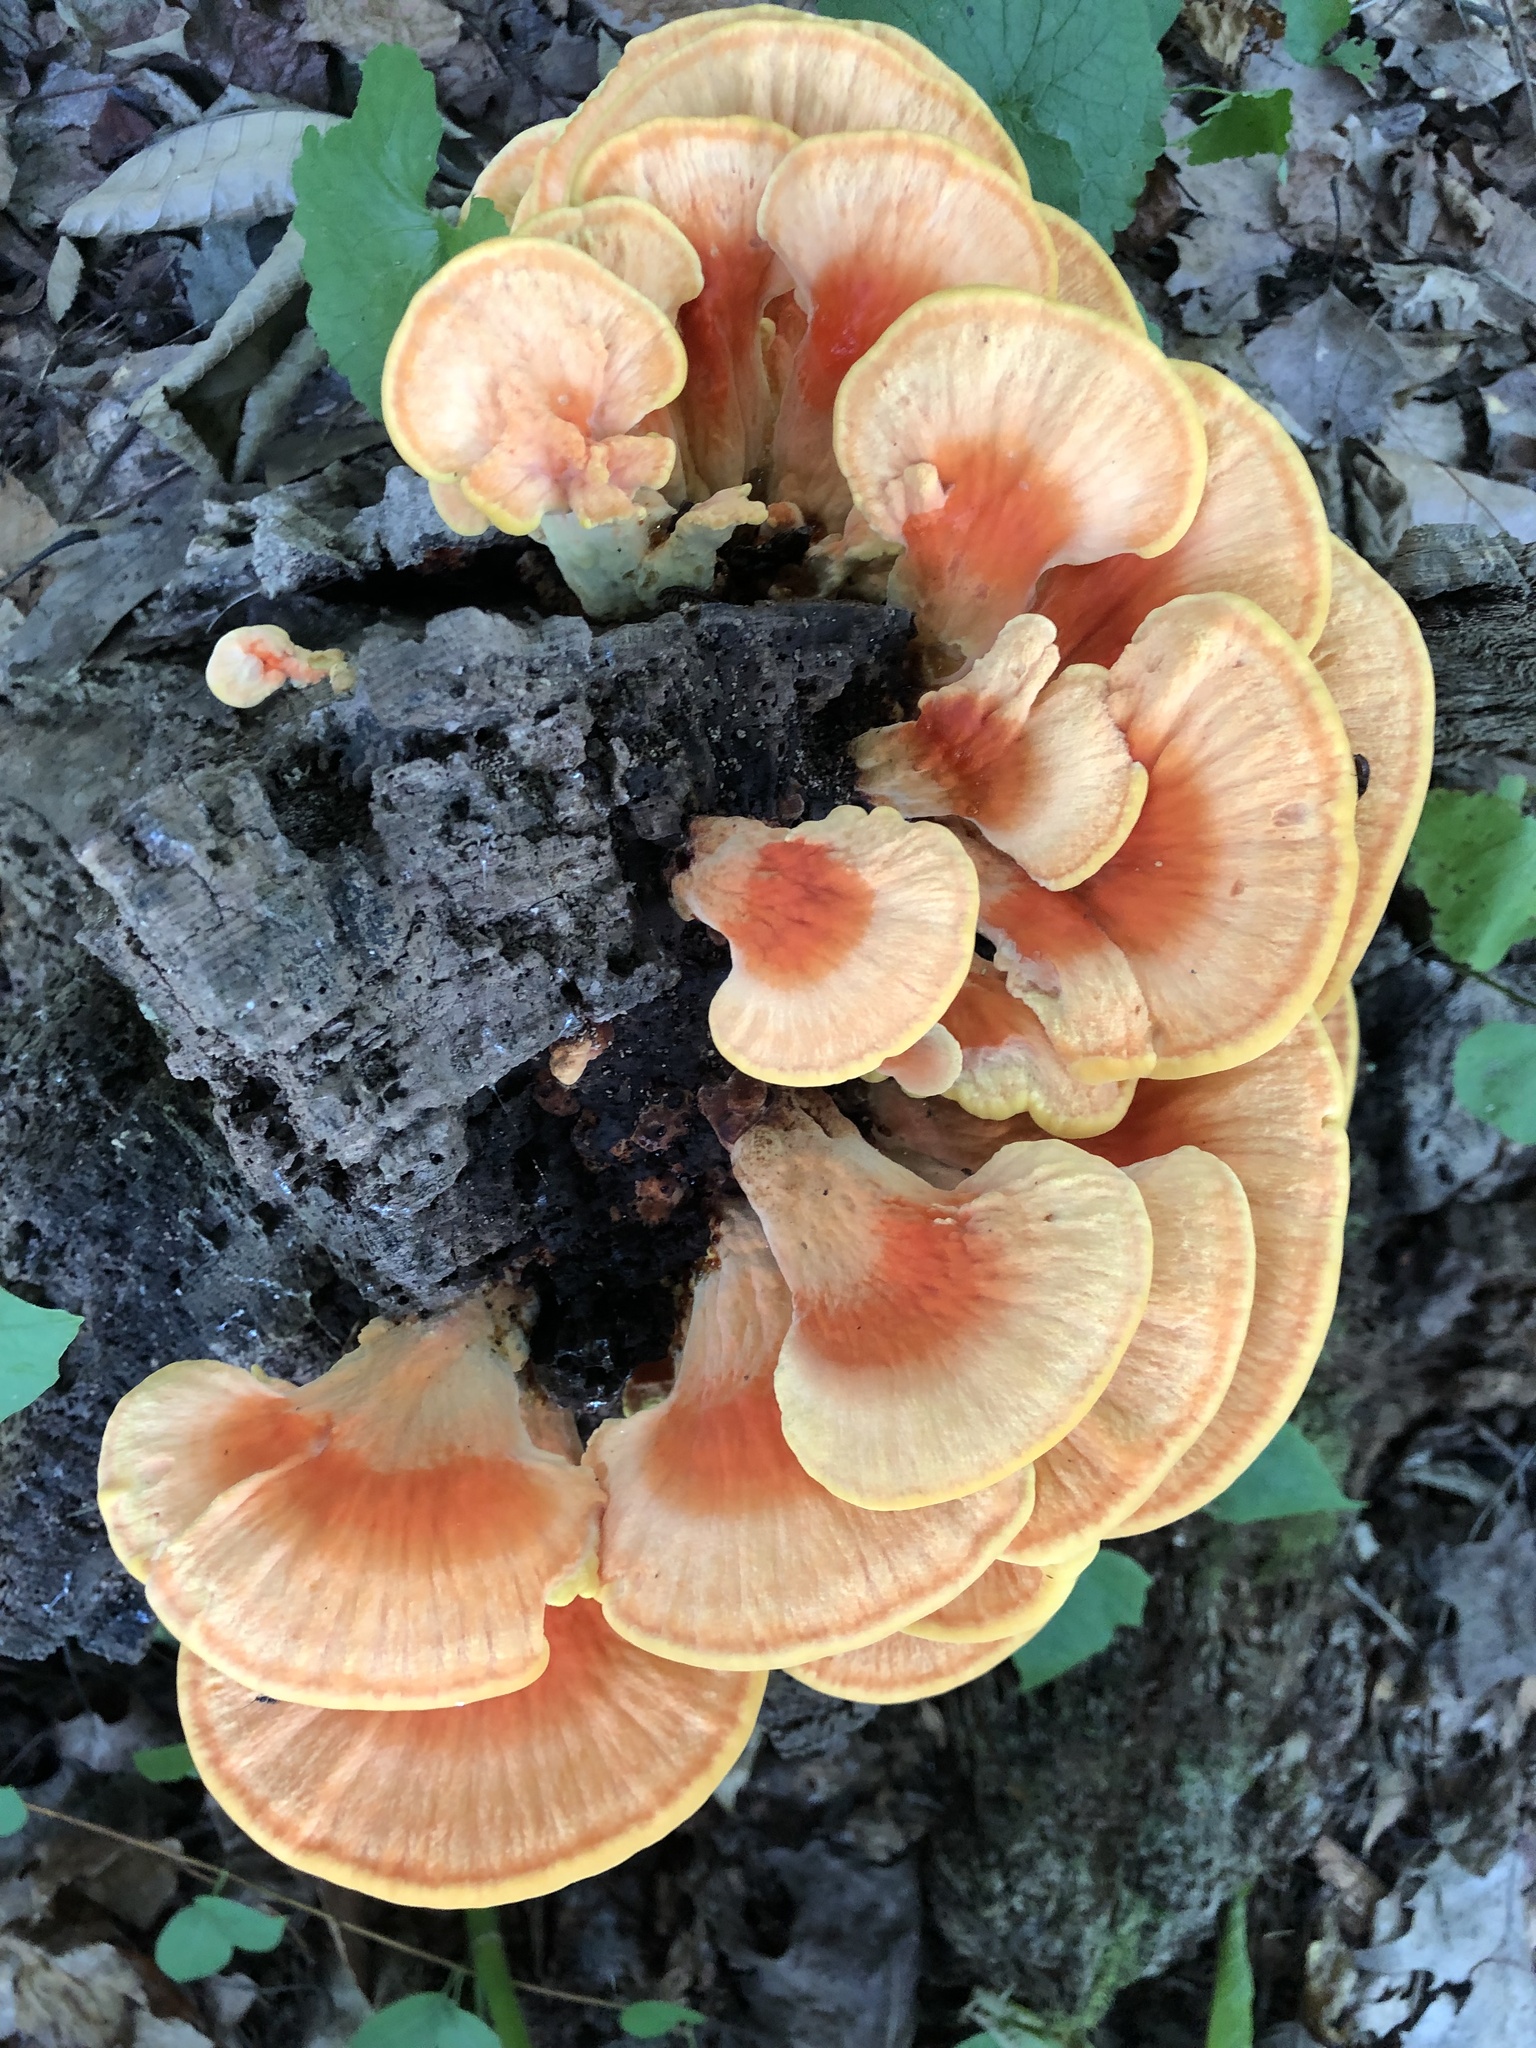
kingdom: Fungi
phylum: Basidiomycota
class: Agaricomycetes
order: Polyporales
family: Laetiporaceae
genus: Laetiporus
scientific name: Laetiporus sulphureus
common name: Chicken of the woods
